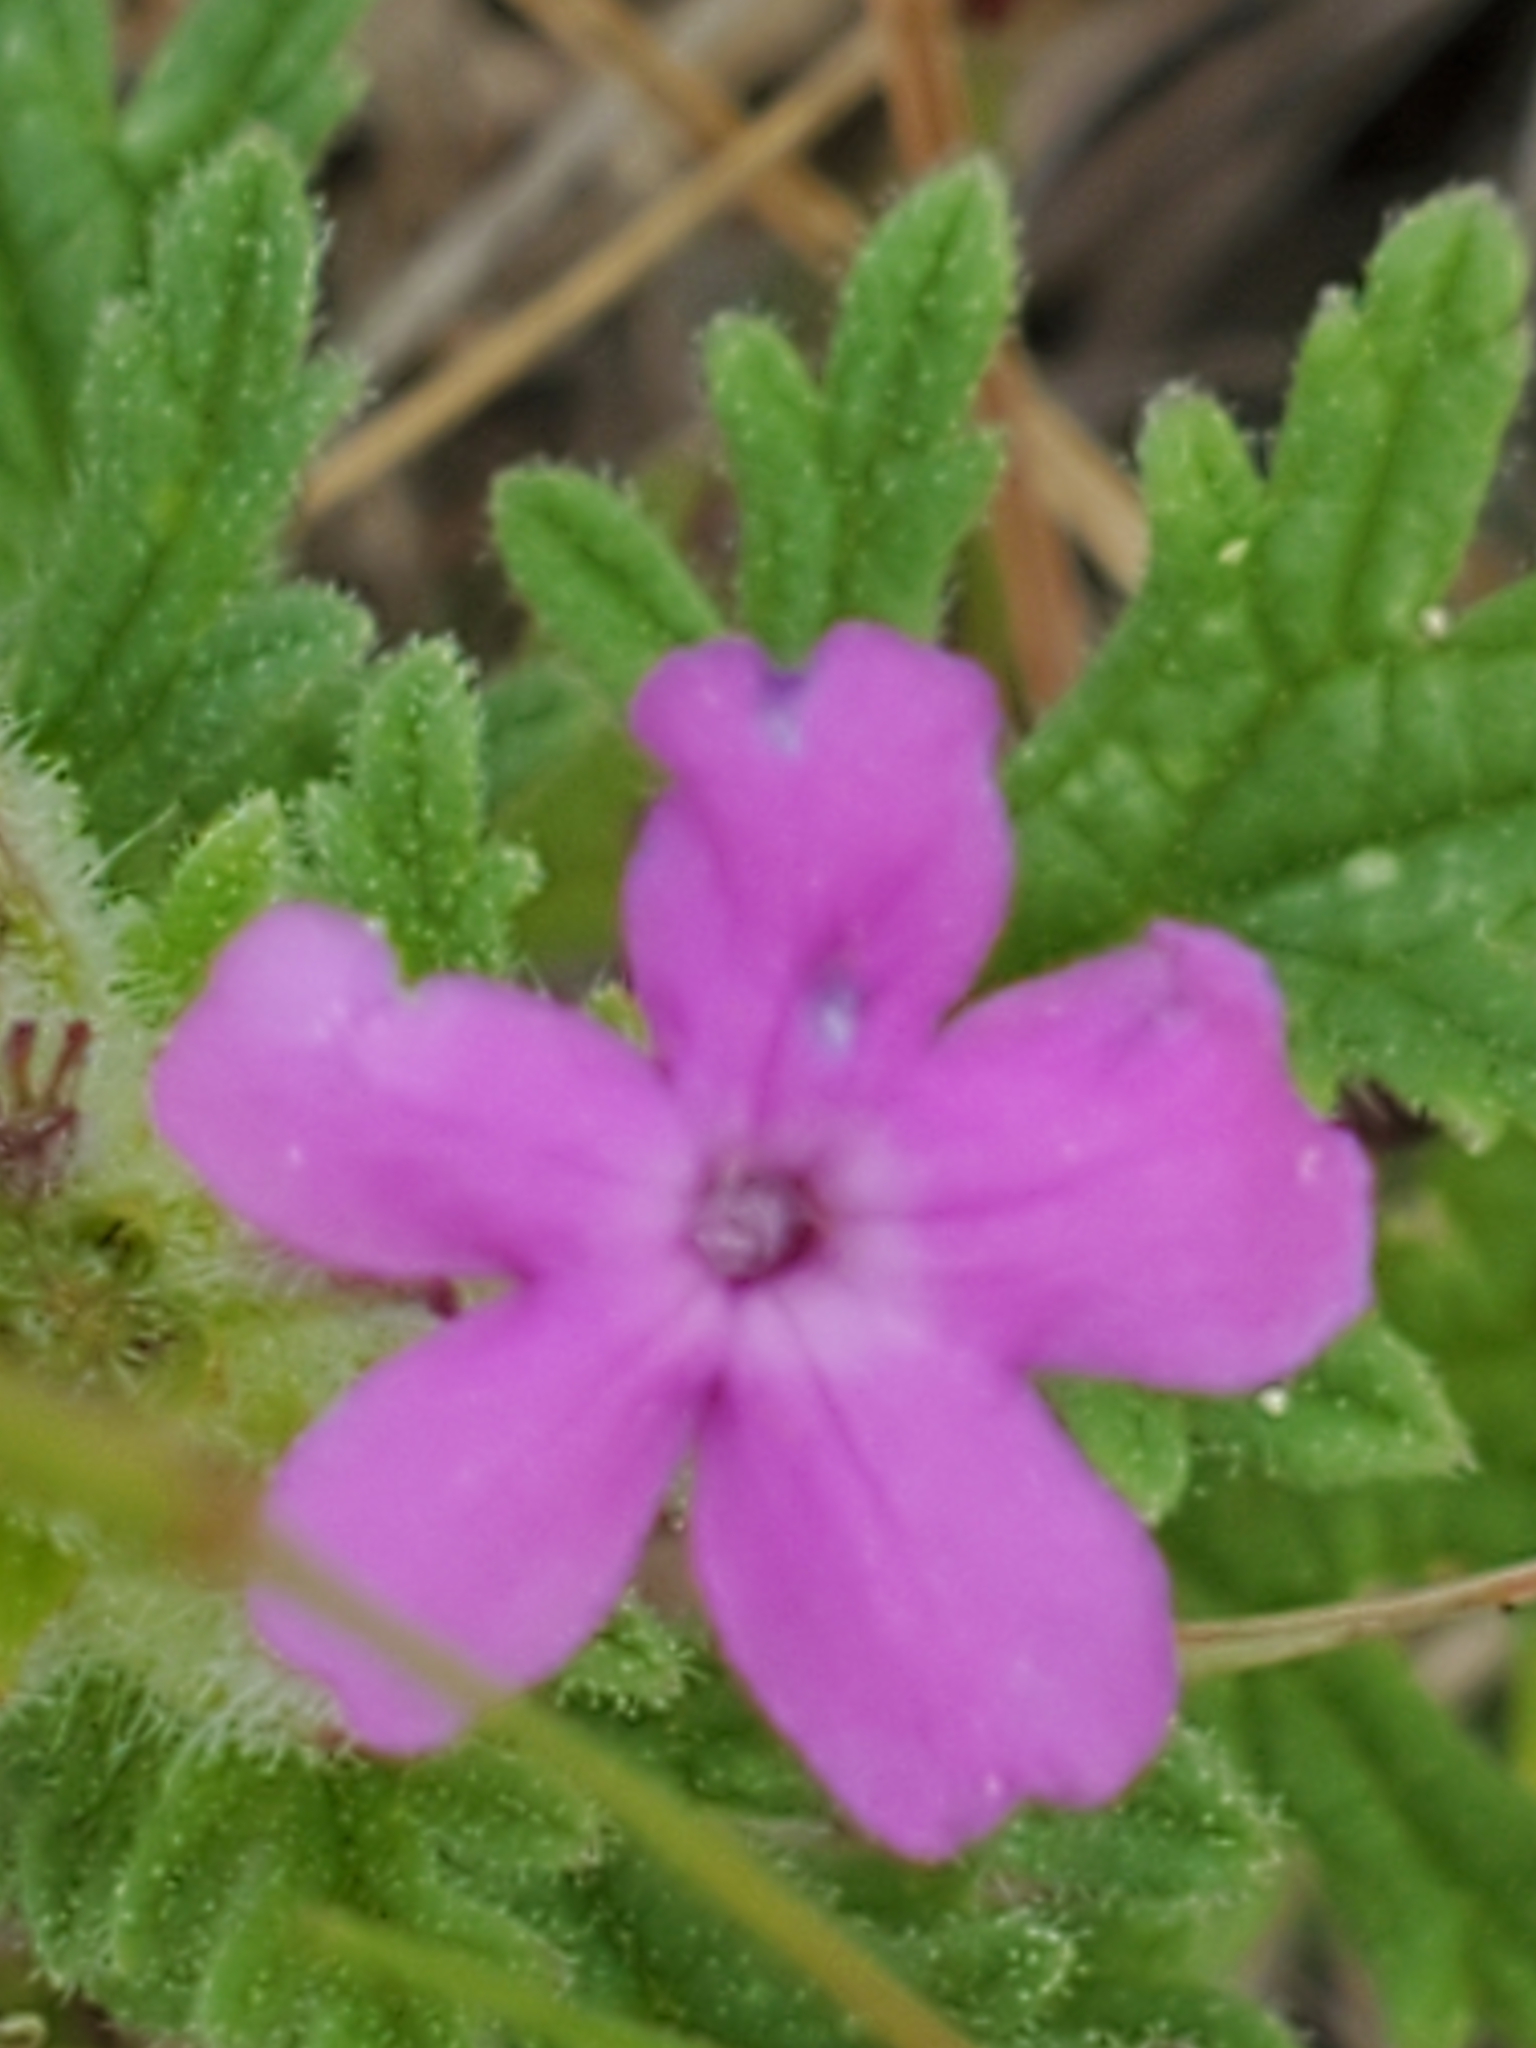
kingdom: Plantae
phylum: Tracheophyta
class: Magnoliopsida
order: Lamiales
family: Verbenaceae
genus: Verbena
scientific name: Verbena tumidula
